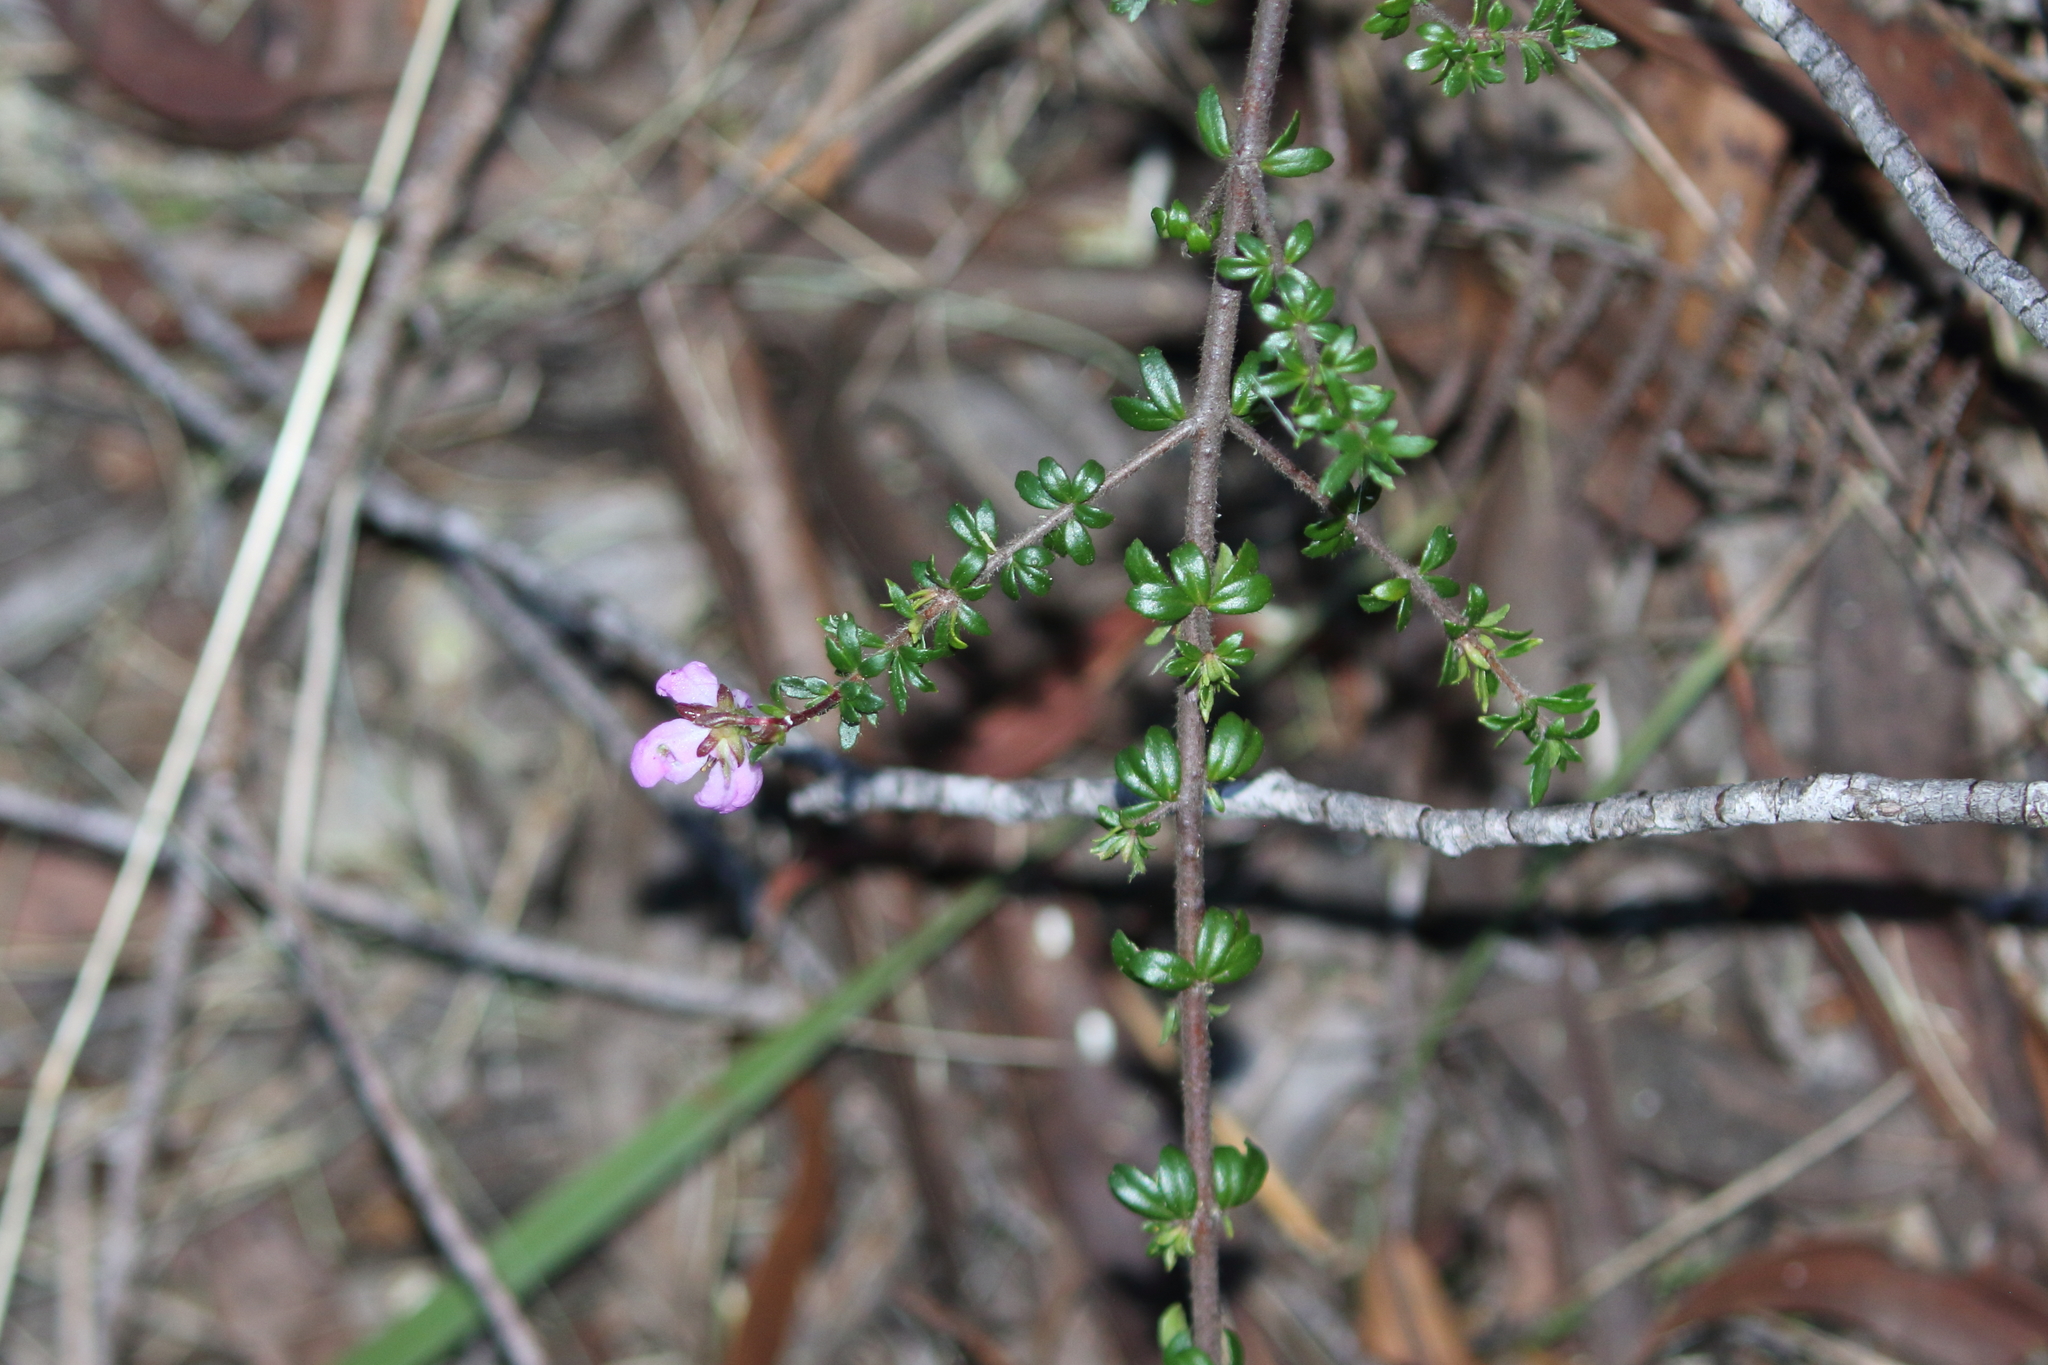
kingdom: Plantae
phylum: Tracheophyta
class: Magnoliopsida
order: Oxalidales
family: Cunoniaceae
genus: Bauera
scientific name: Bauera rubioides
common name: River-rose
